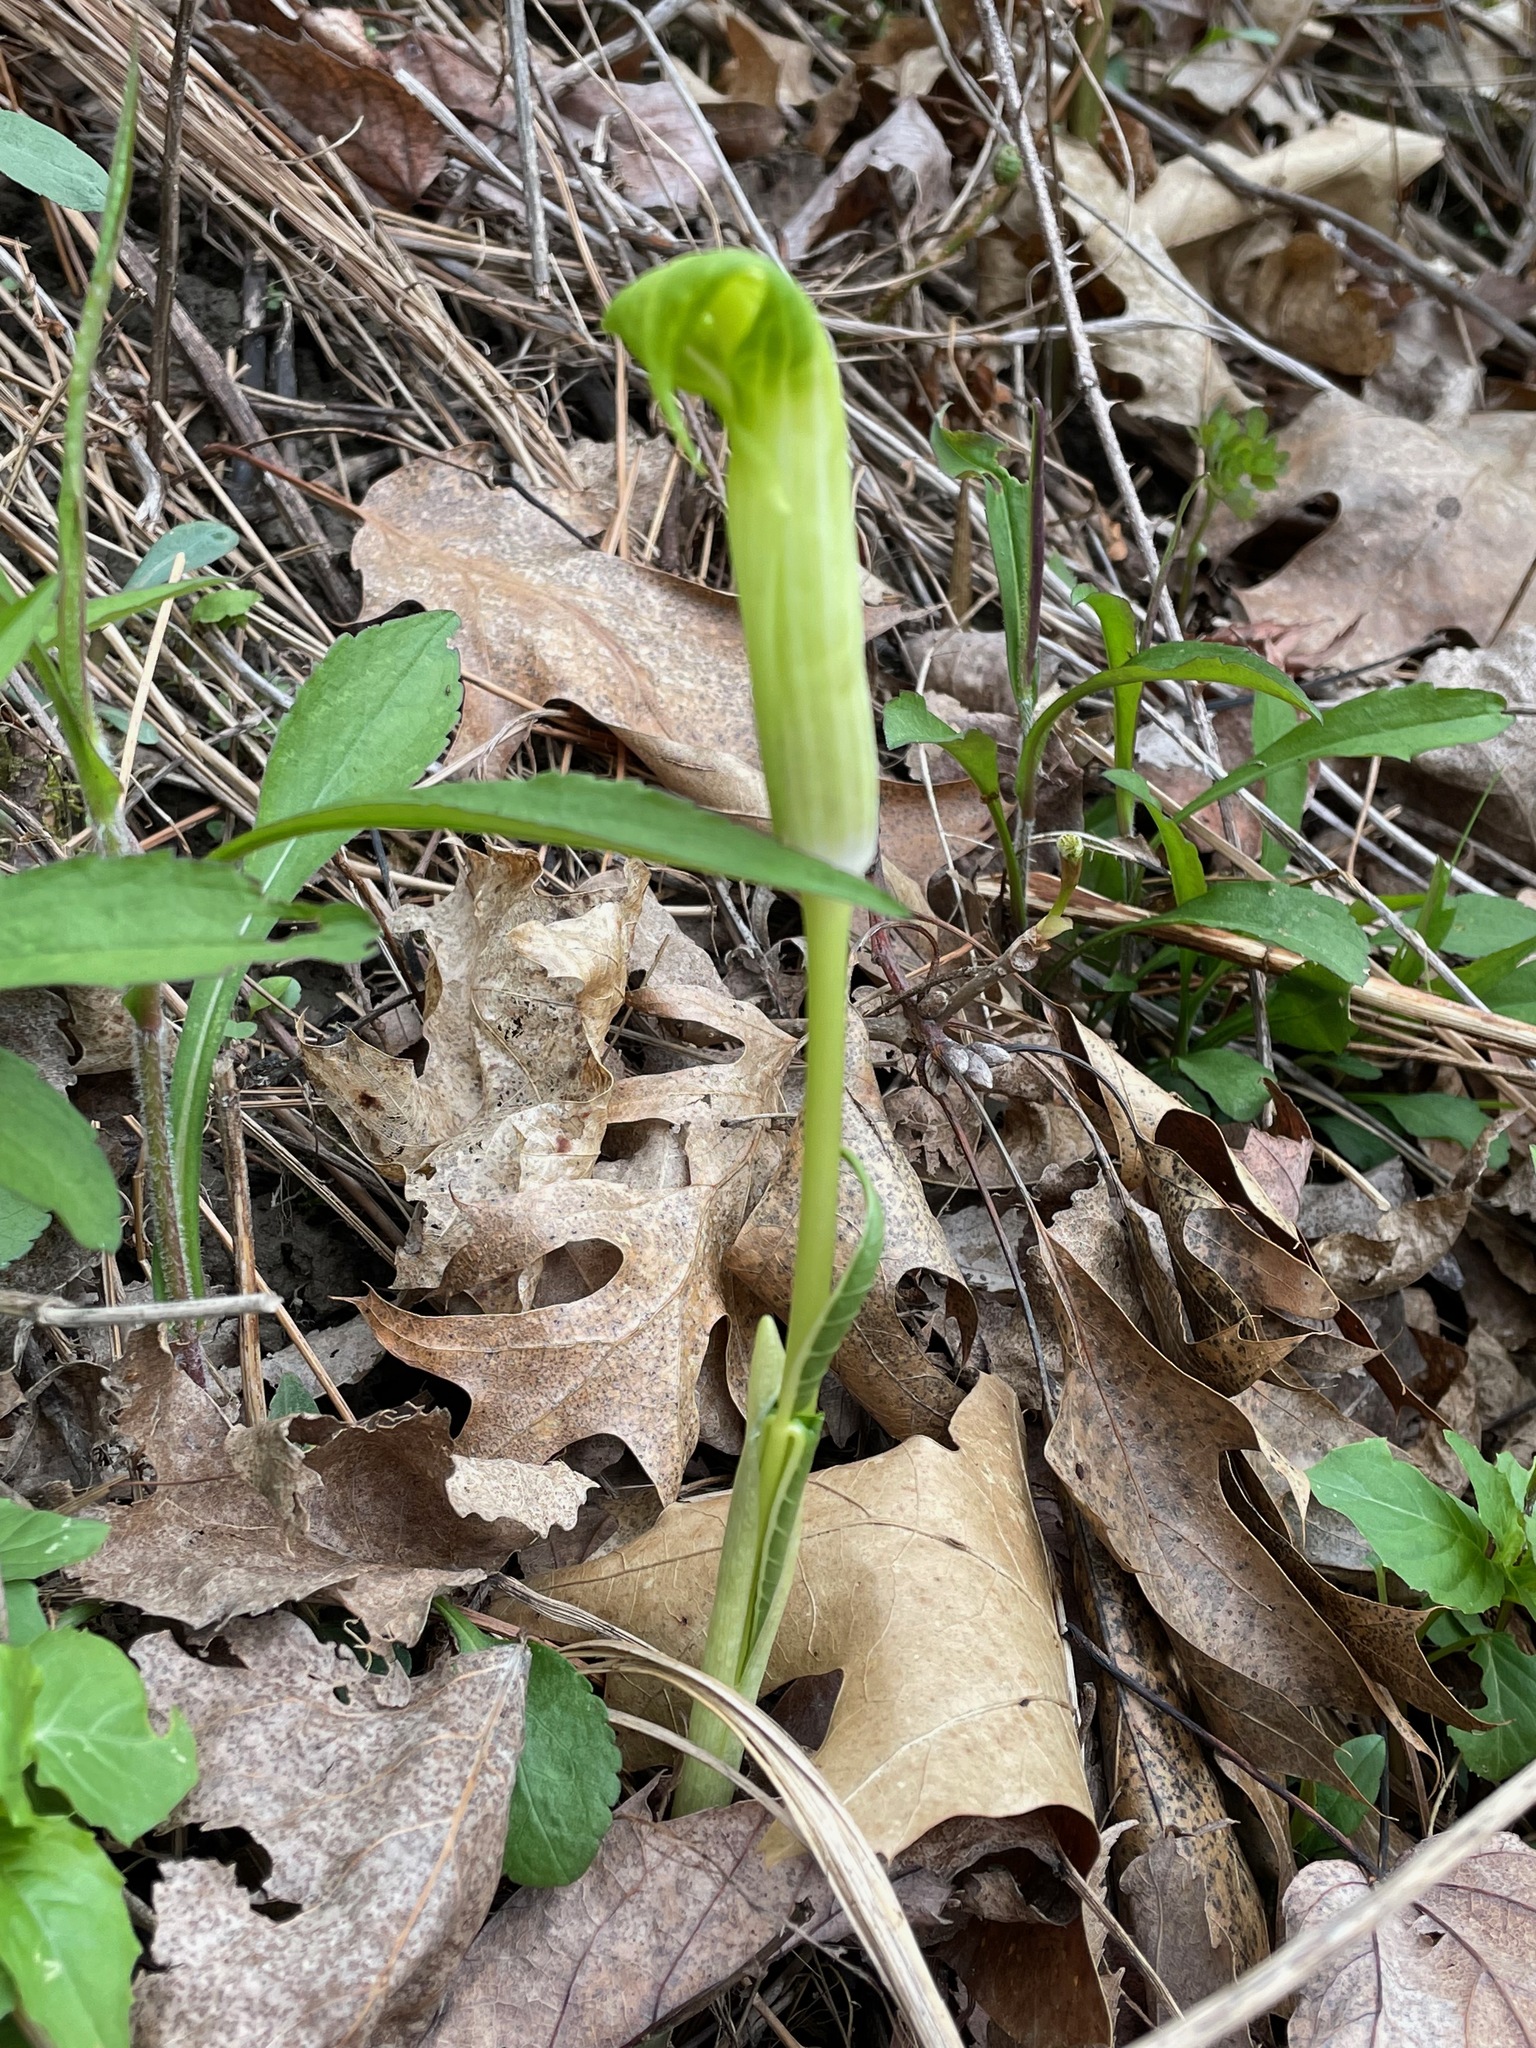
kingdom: Plantae
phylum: Tracheophyta
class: Liliopsida
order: Alismatales
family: Araceae
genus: Arisaema
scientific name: Arisaema triphyllum
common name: Jack-in-the-pulpit
